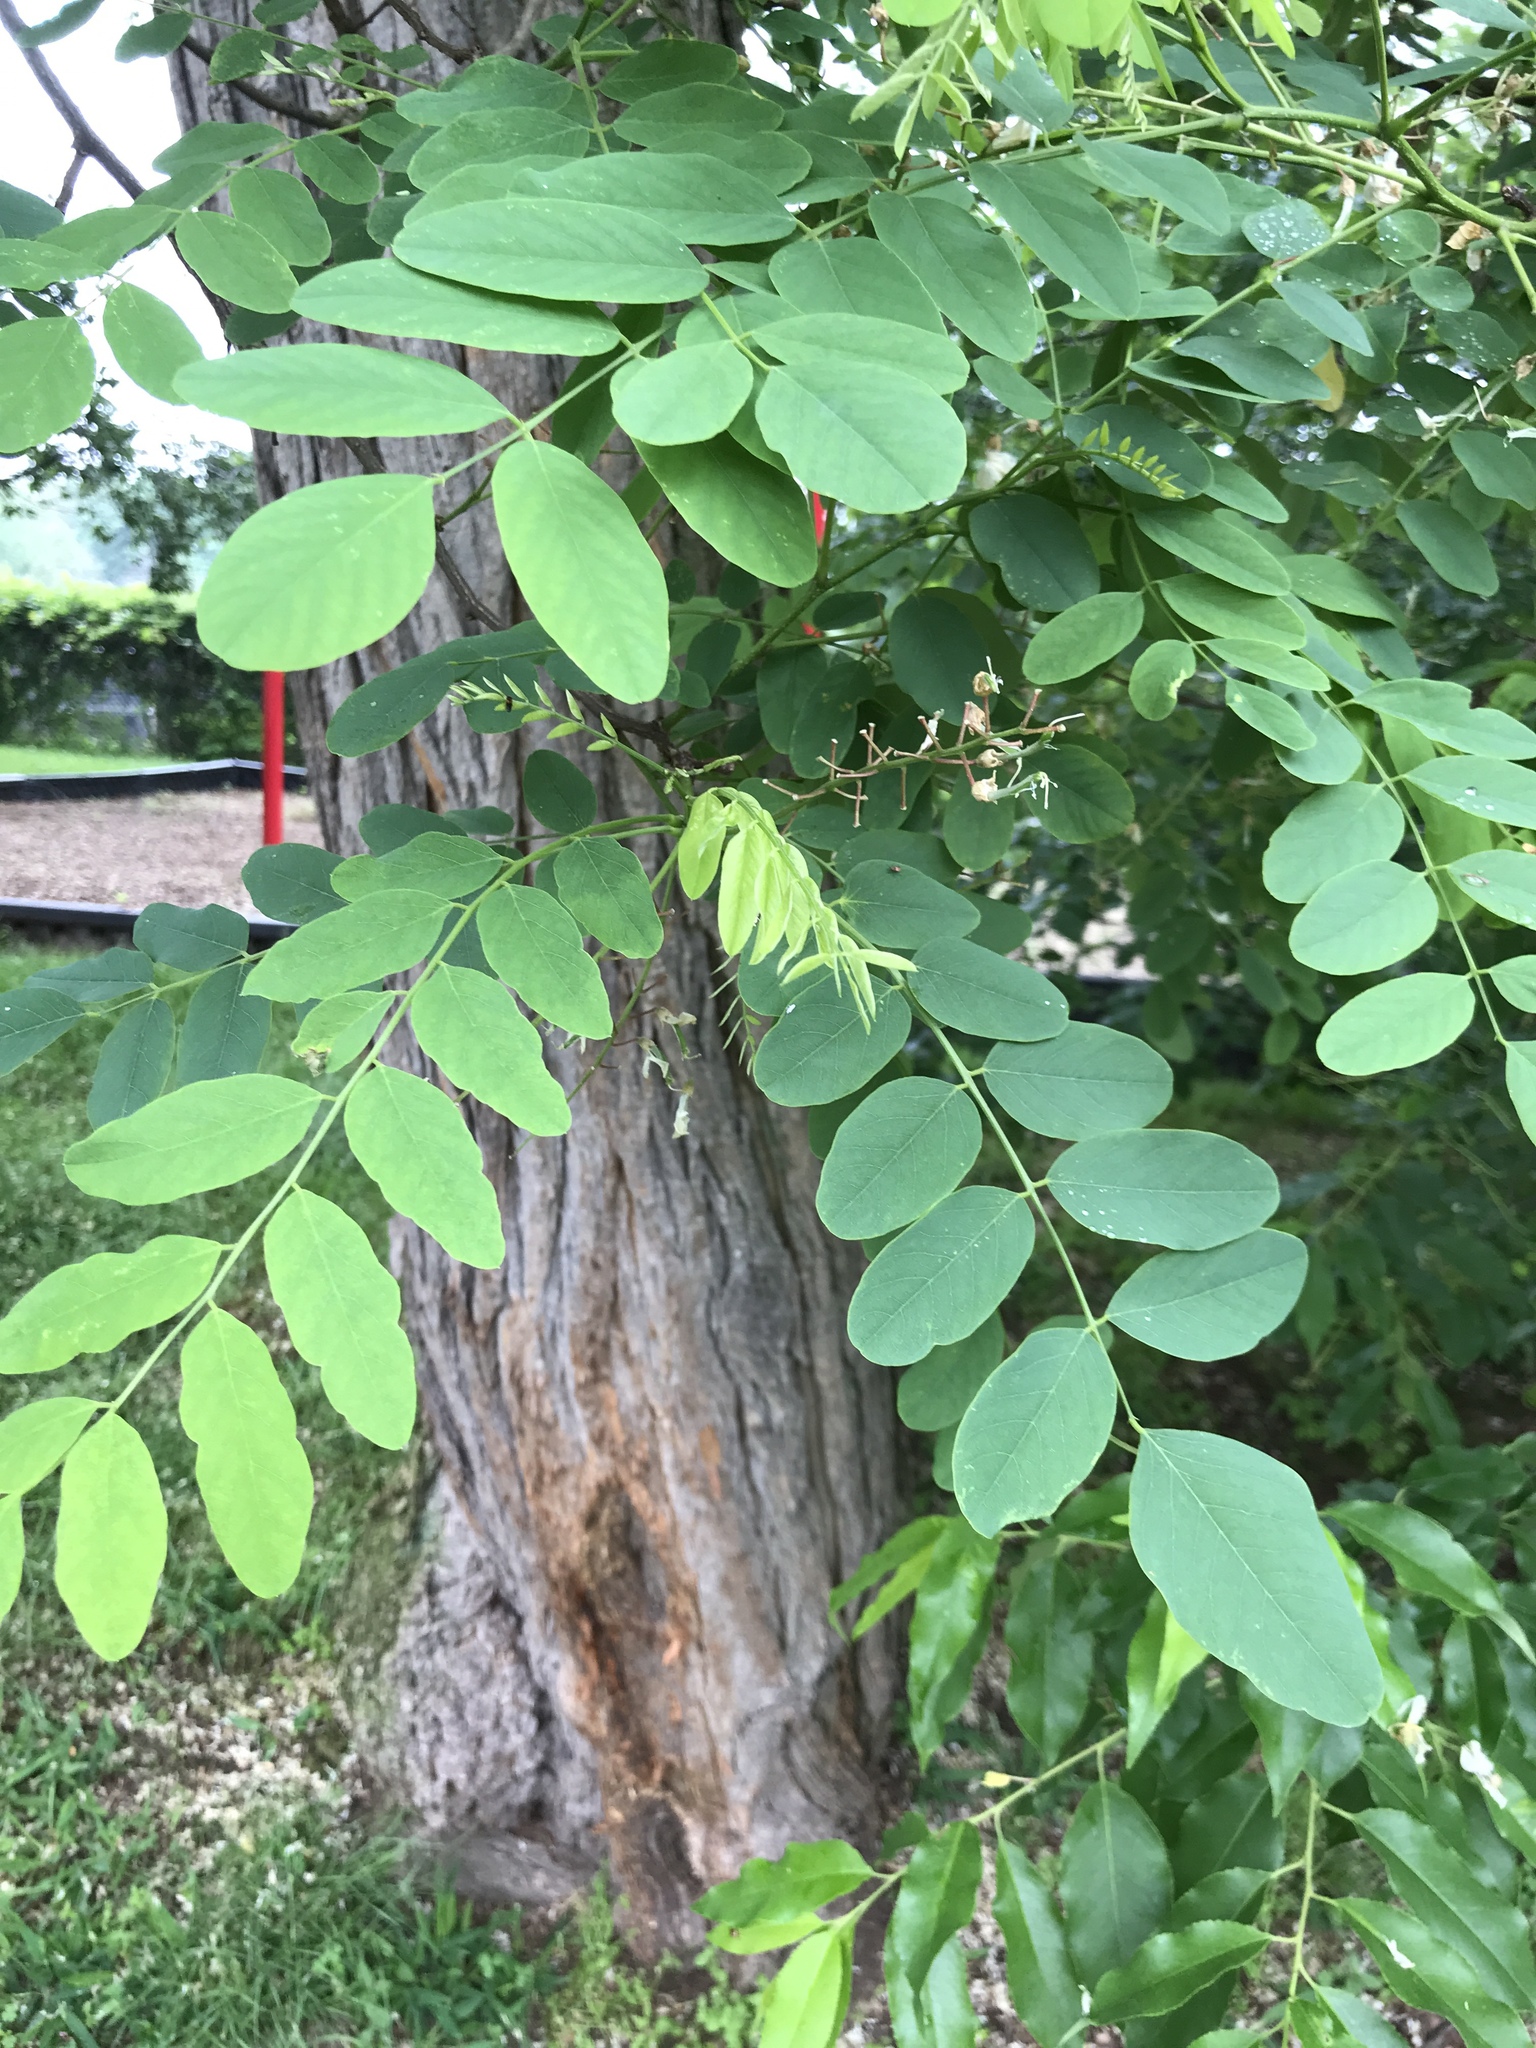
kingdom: Plantae
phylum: Tracheophyta
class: Magnoliopsida
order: Fabales
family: Fabaceae
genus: Robinia
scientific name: Robinia pseudoacacia
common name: Black locust
